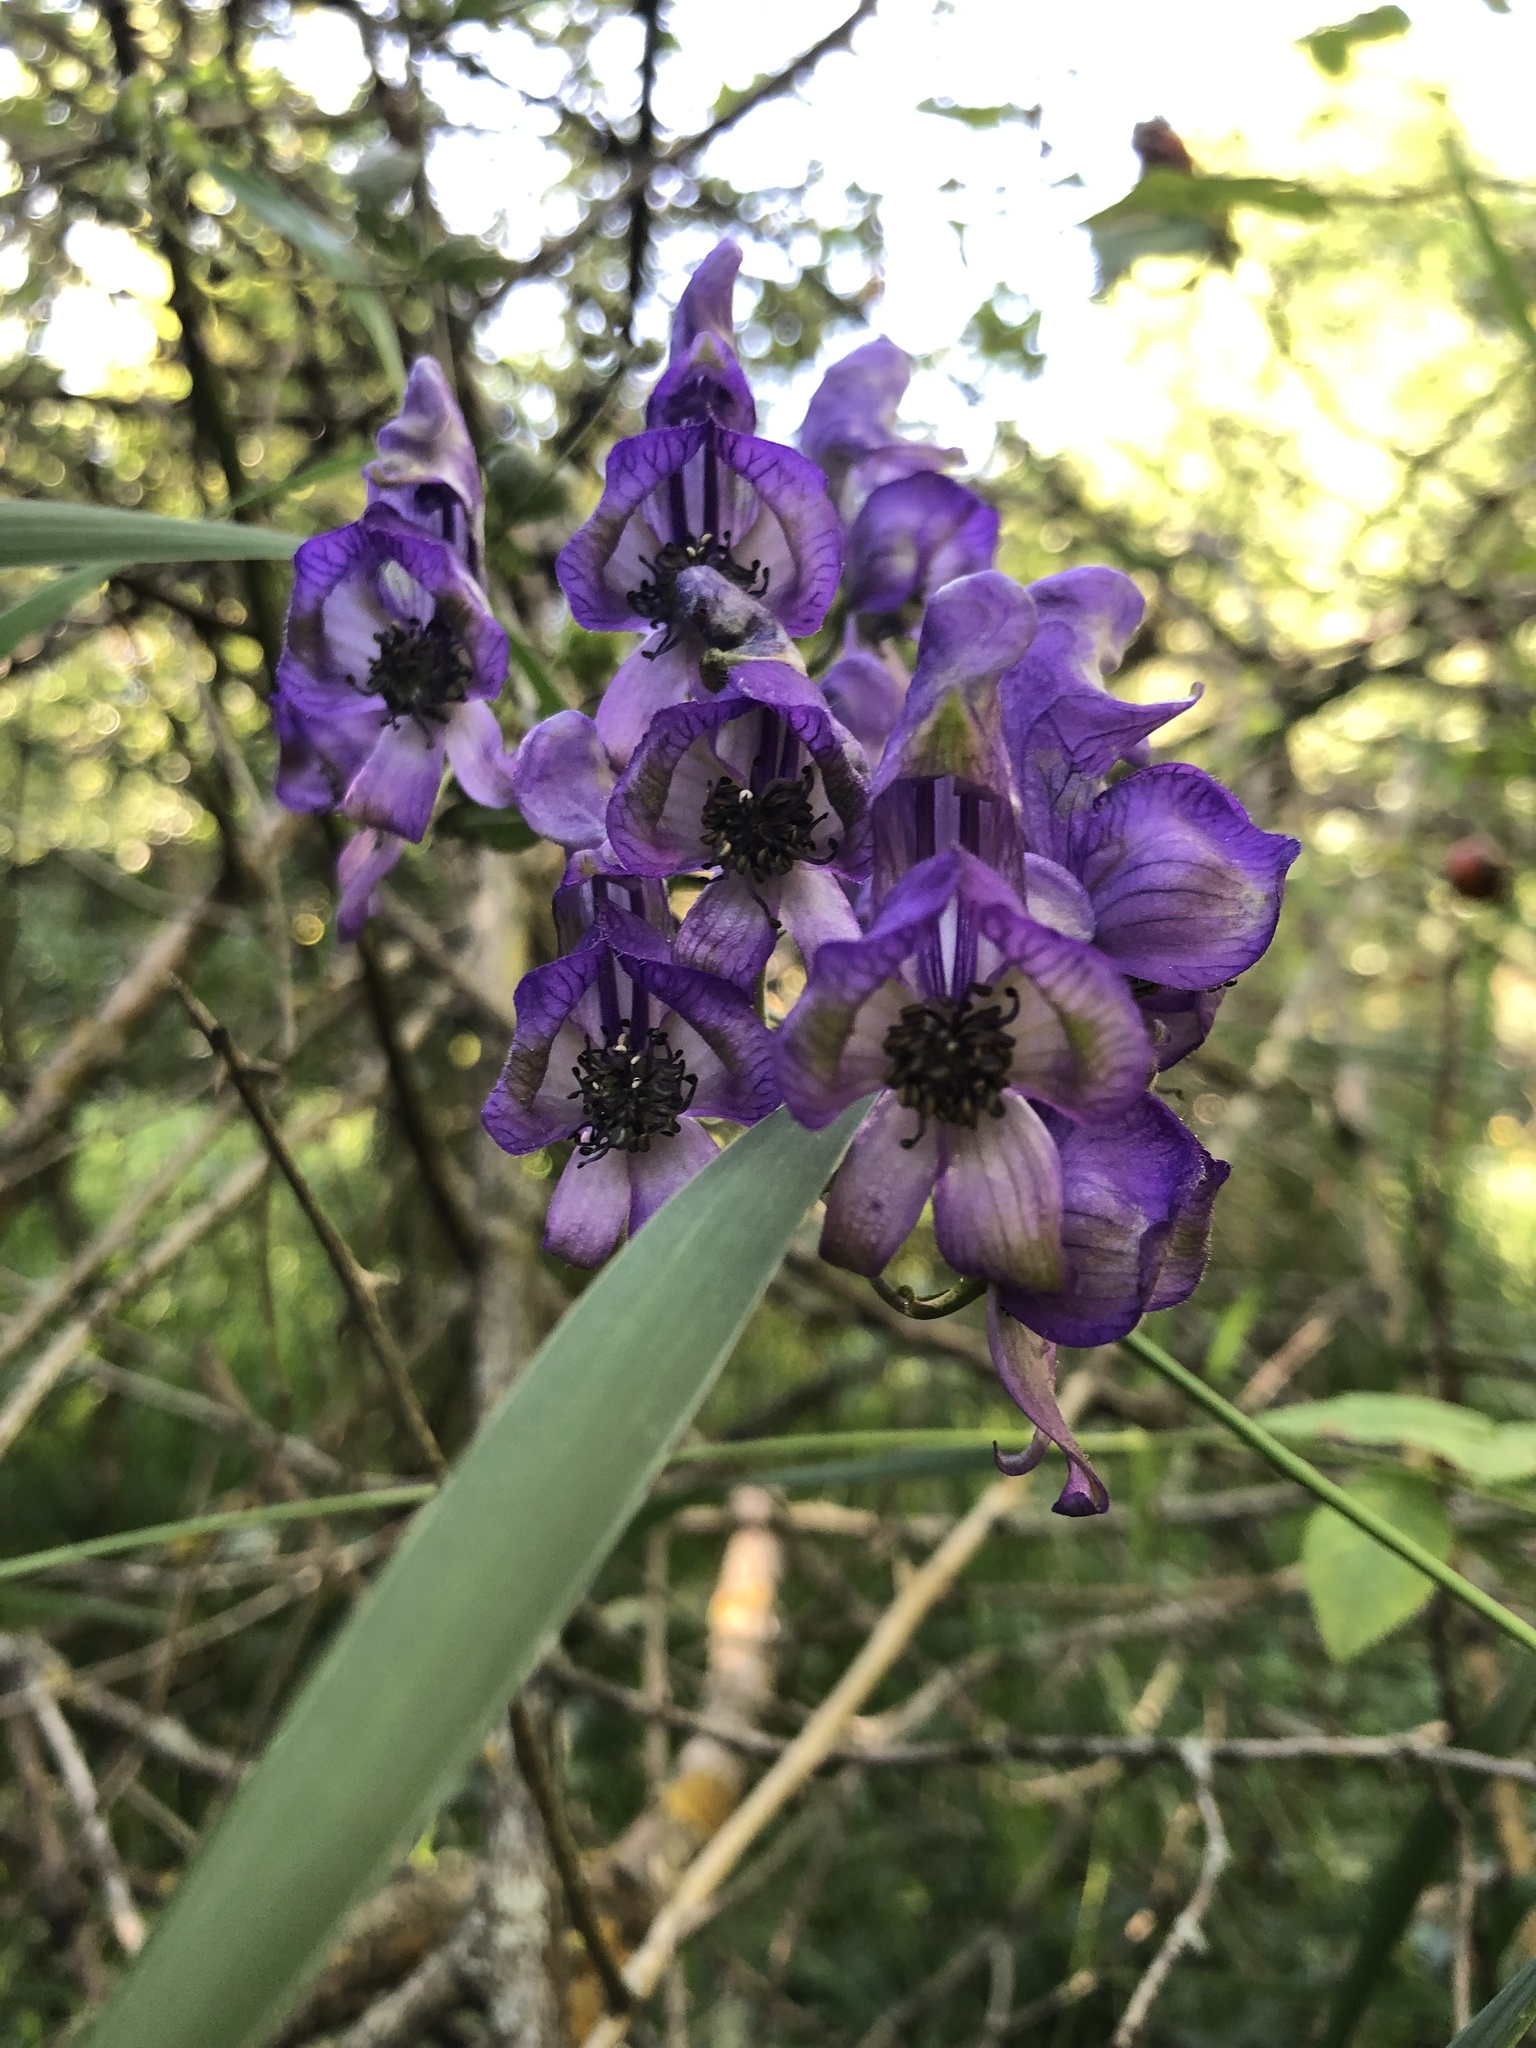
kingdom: Plantae
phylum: Tracheophyta
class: Magnoliopsida
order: Ranunculales
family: Ranunculaceae
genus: Aconitum
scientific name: Aconitum variegatum
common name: Manchurian monkshood
